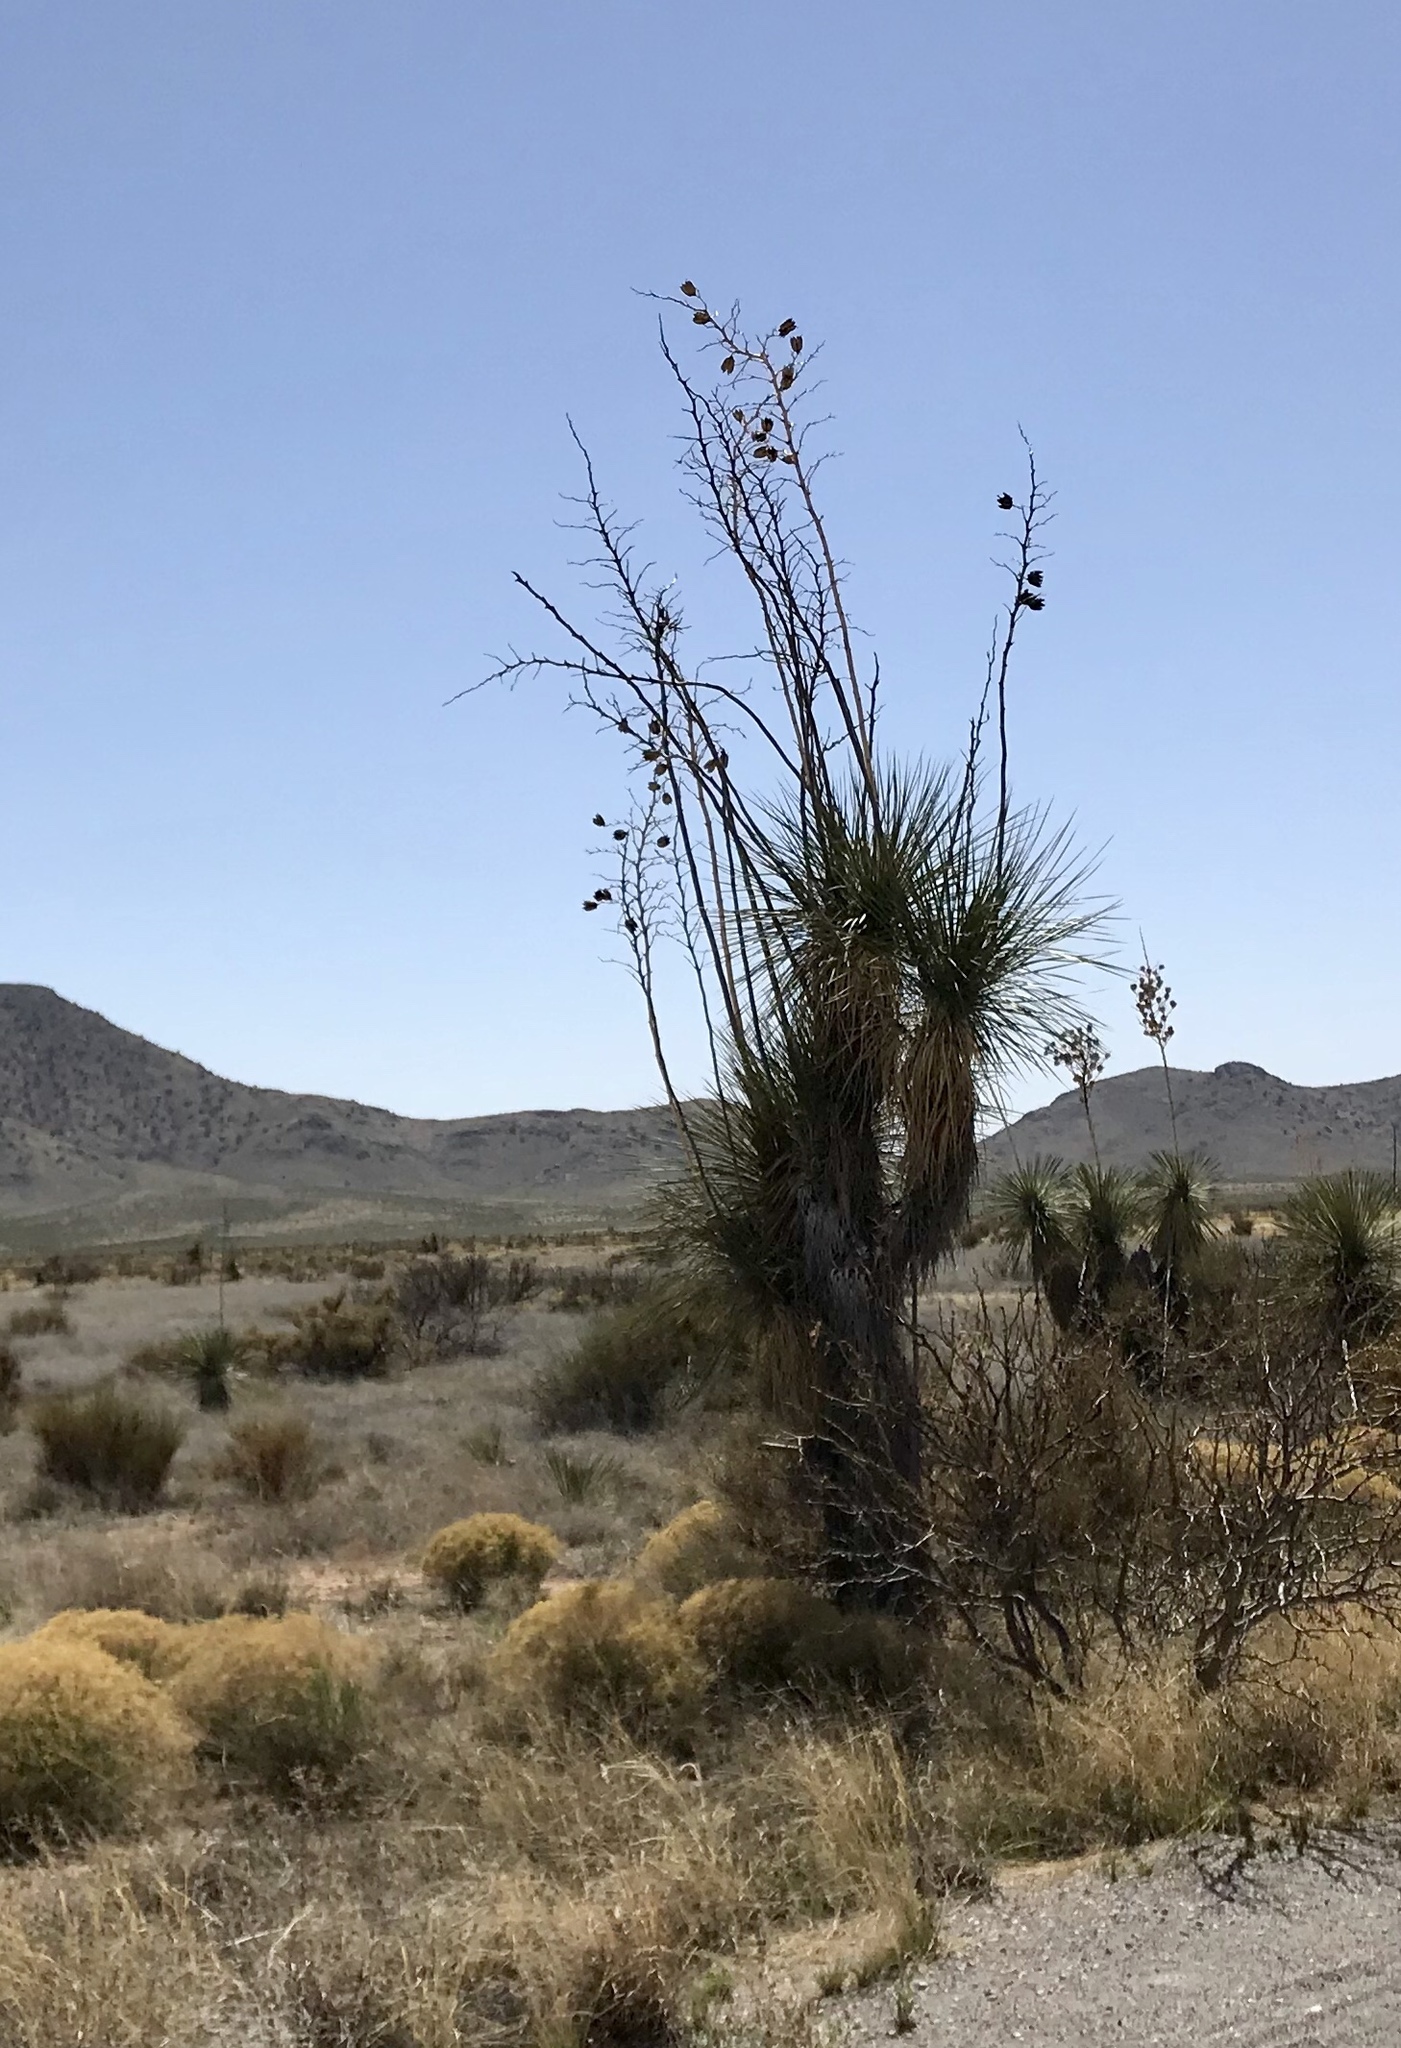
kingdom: Plantae
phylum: Tracheophyta
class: Liliopsida
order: Asparagales
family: Asparagaceae
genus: Yucca
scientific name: Yucca elata
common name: Palmella
